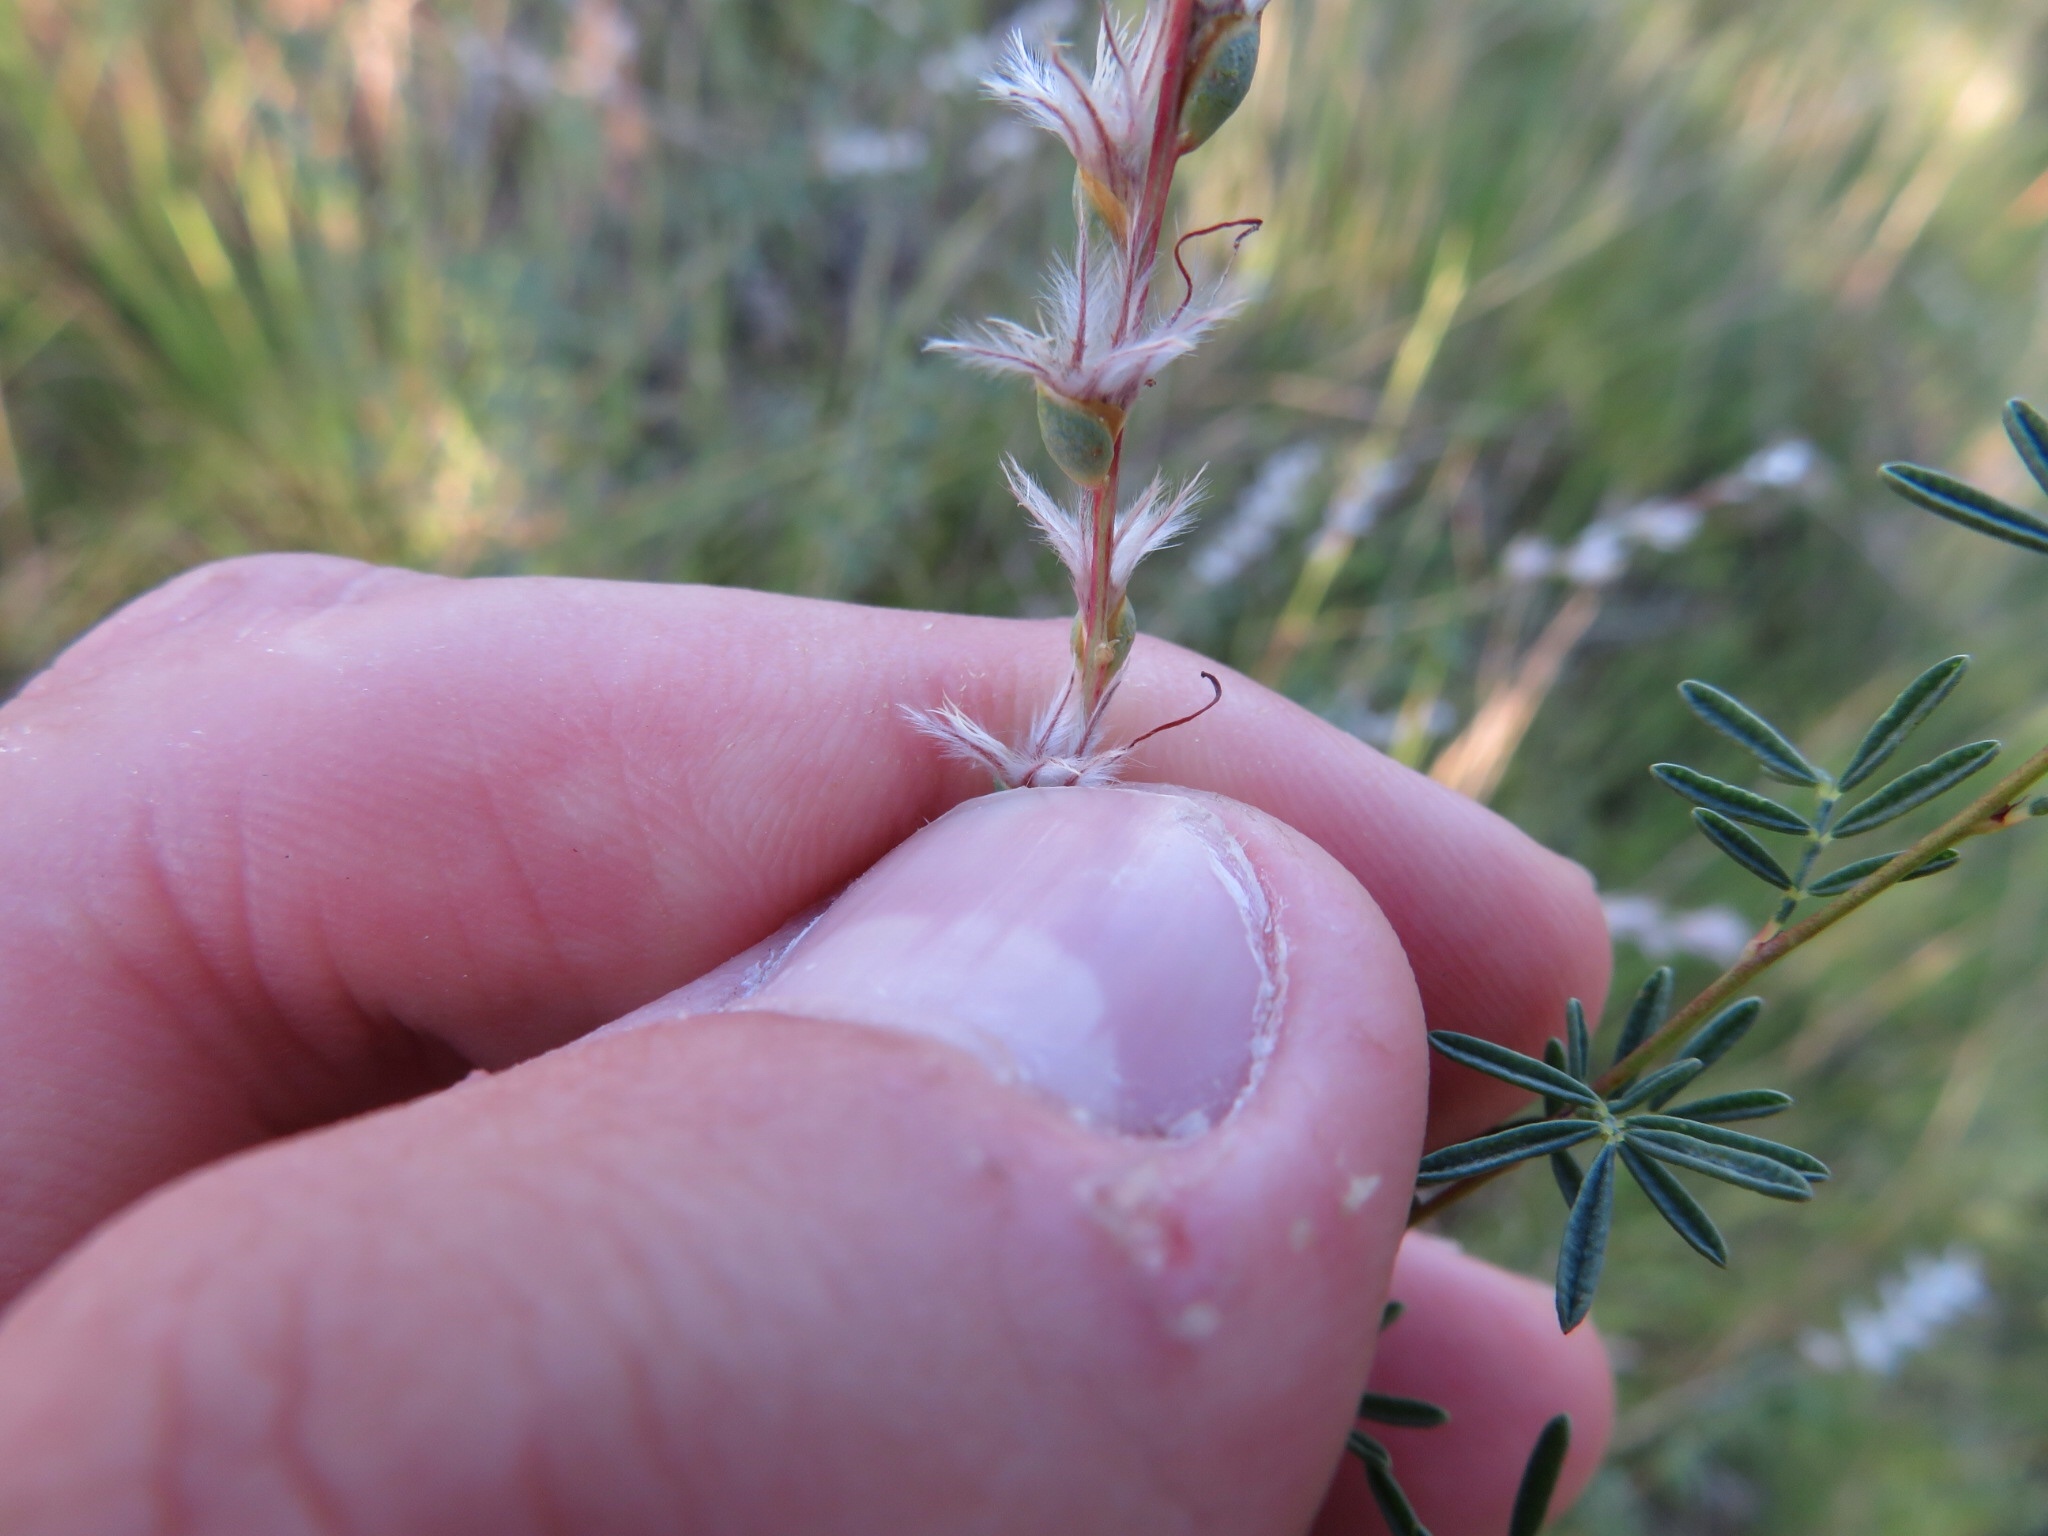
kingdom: Plantae
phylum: Tracheophyta
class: Magnoliopsida
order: Fabales
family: Fabaceae
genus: Dalea
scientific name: Dalea enneandra
